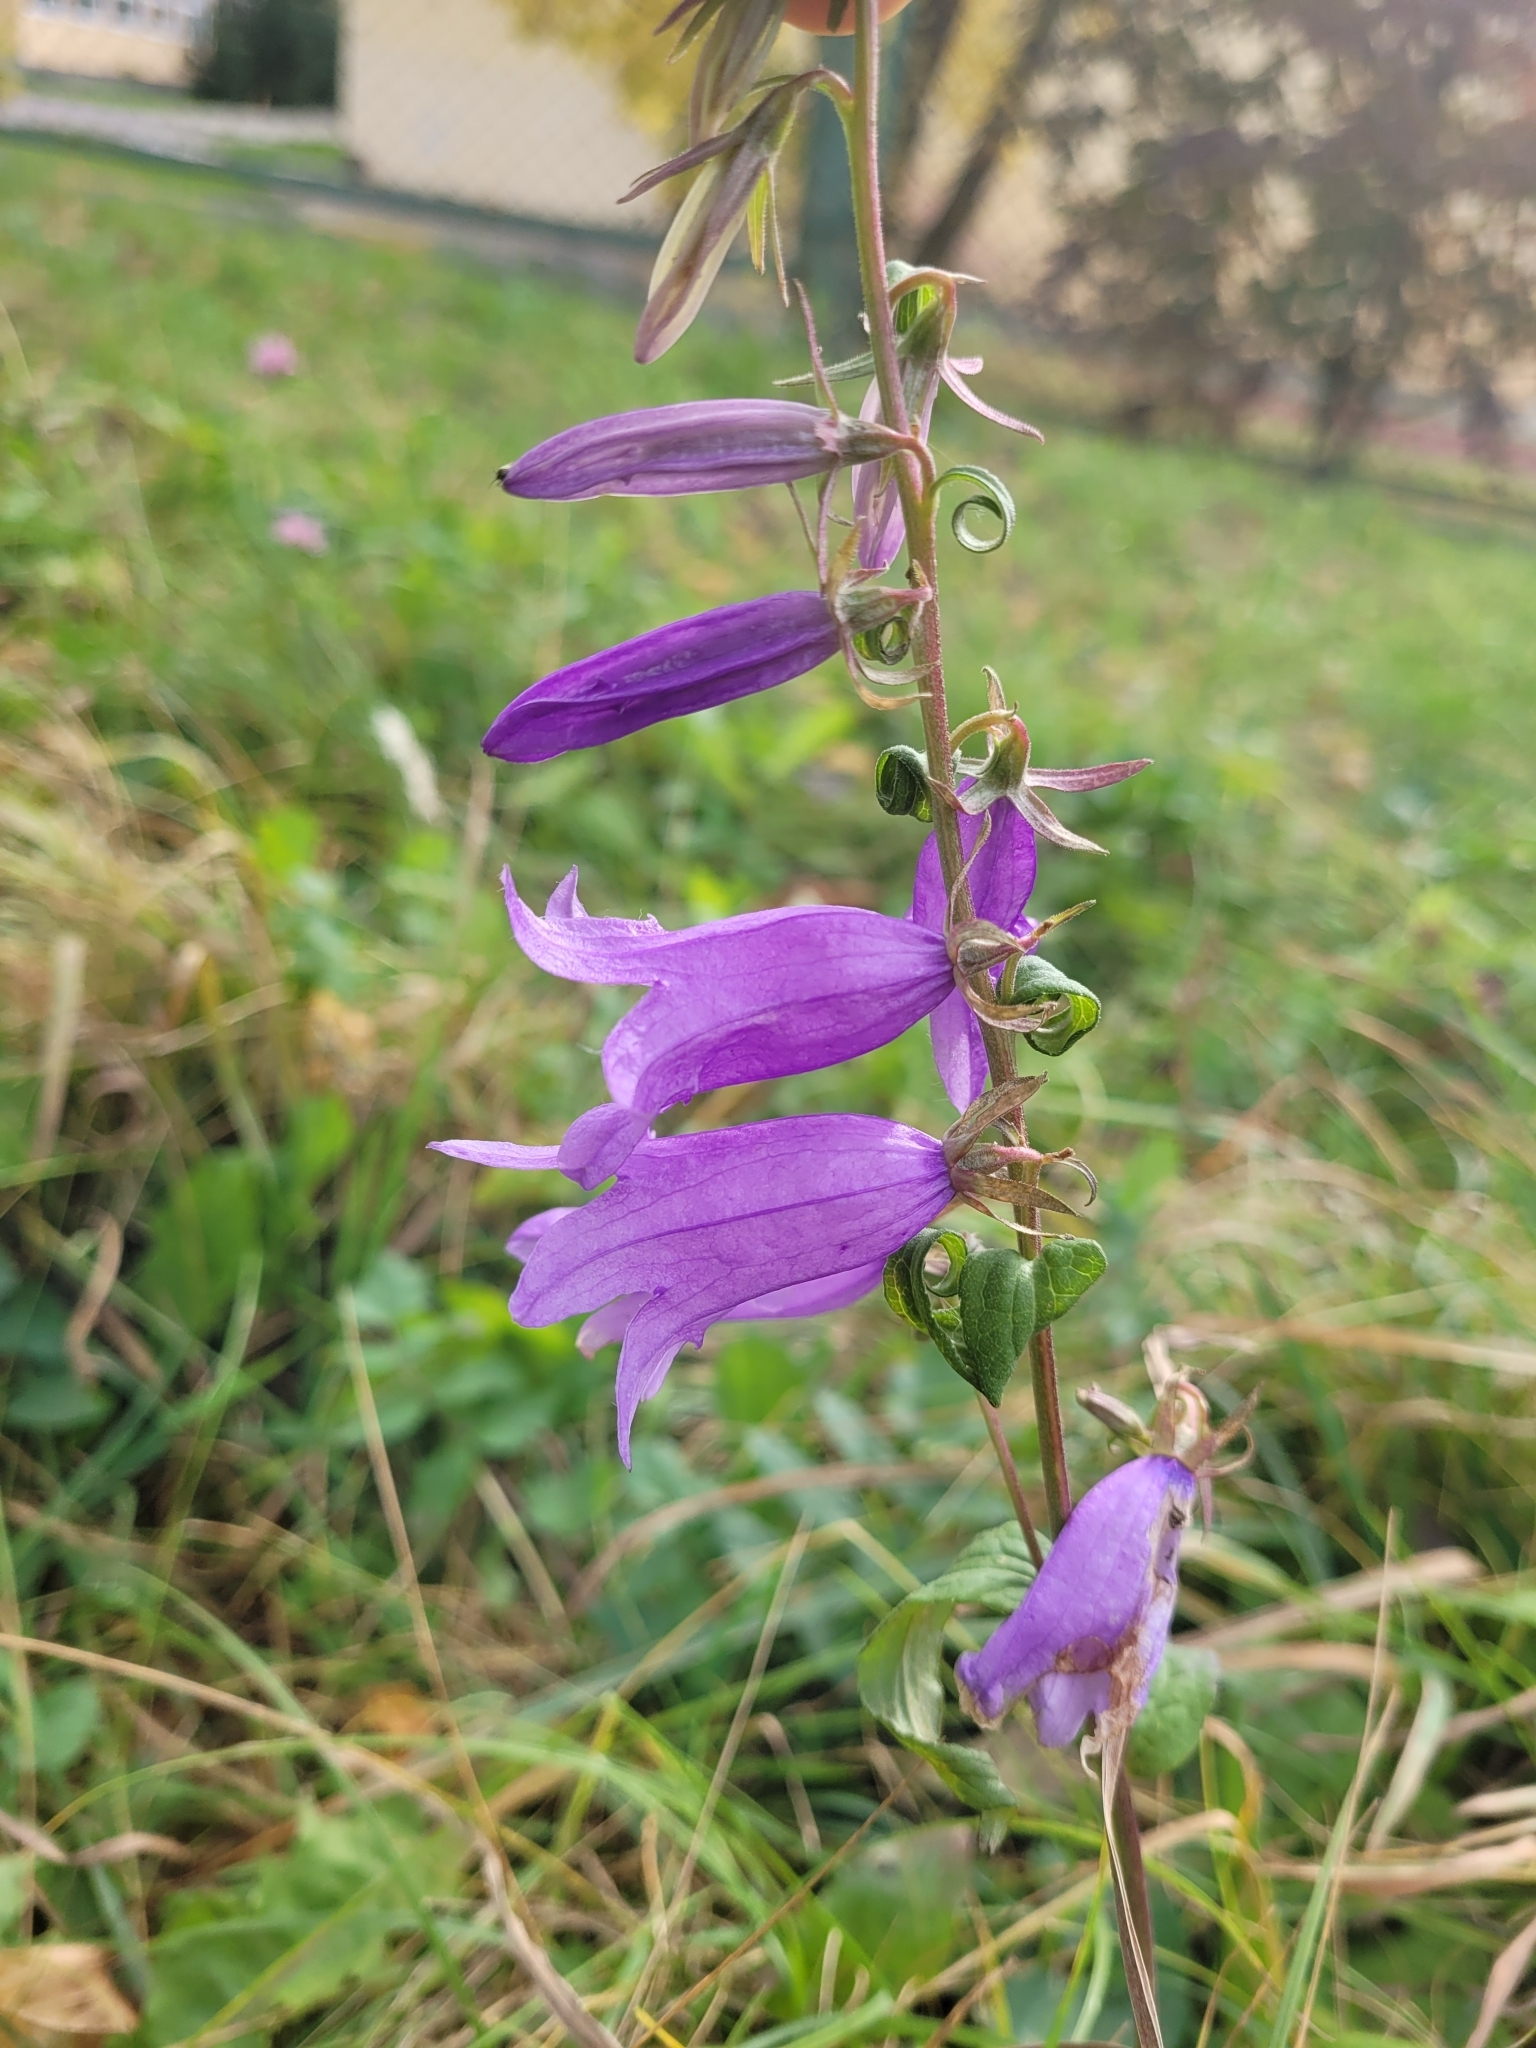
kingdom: Plantae
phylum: Tracheophyta
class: Magnoliopsida
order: Asterales
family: Campanulaceae
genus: Campanula
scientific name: Campanula rapunculoides
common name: Creeping bellflower
